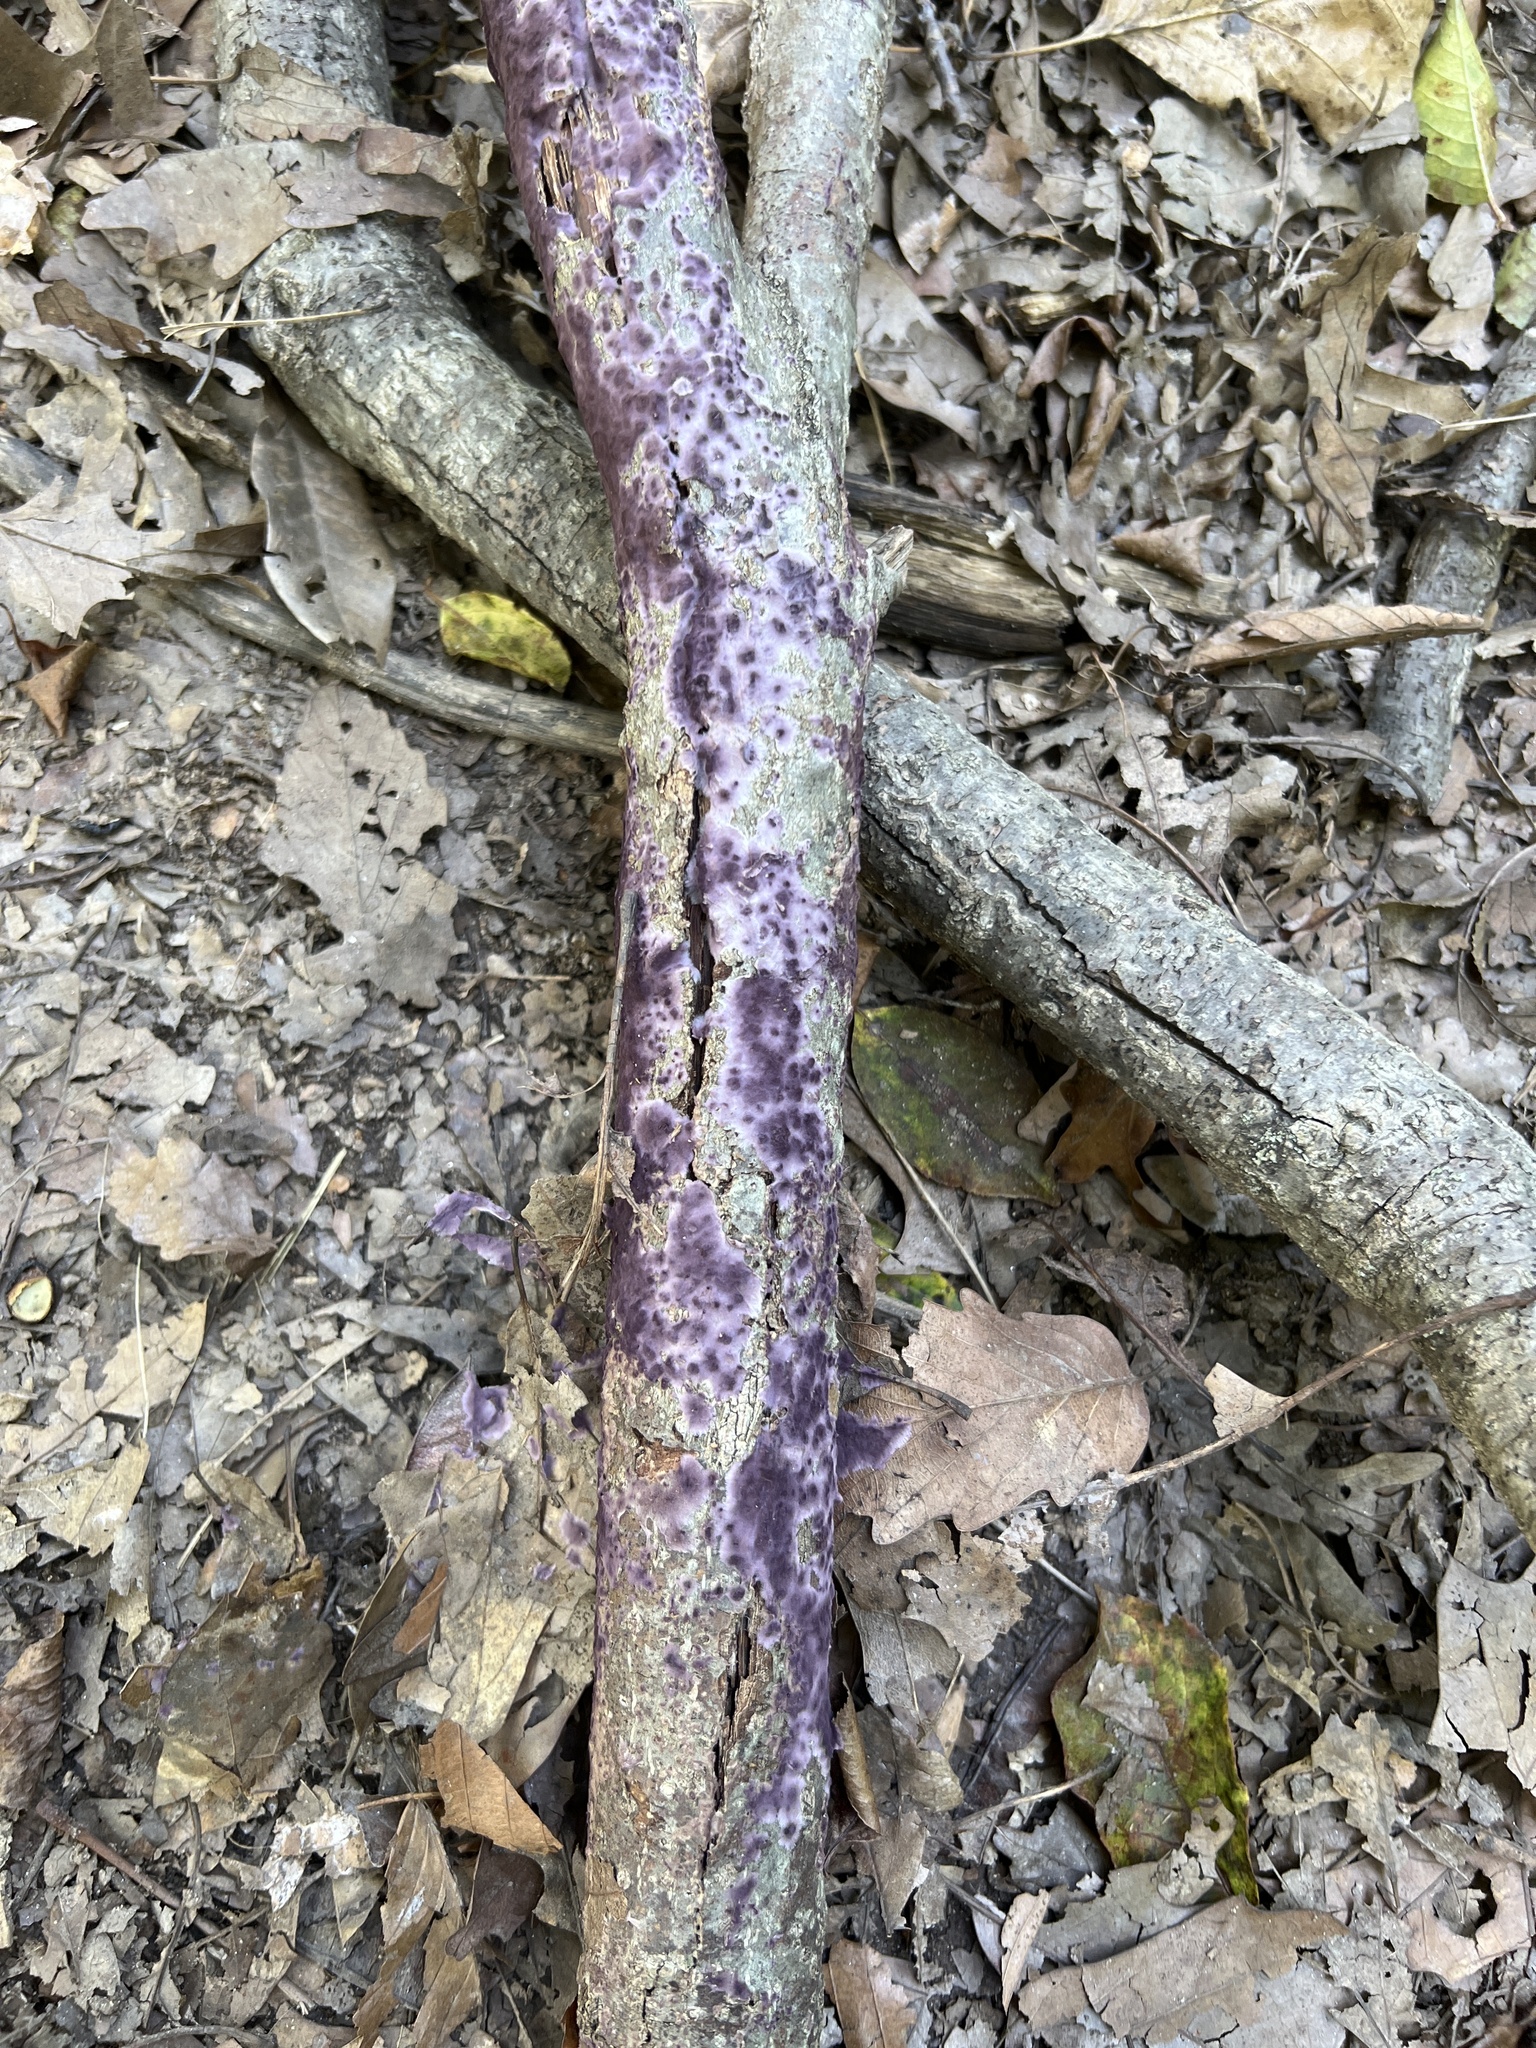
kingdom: Fungi
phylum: Basidiomycota
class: Agaricomycetes
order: Polyporales
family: Phanerochaetaceae
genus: Phlebiopsis
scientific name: Phlebiopsis crassa
